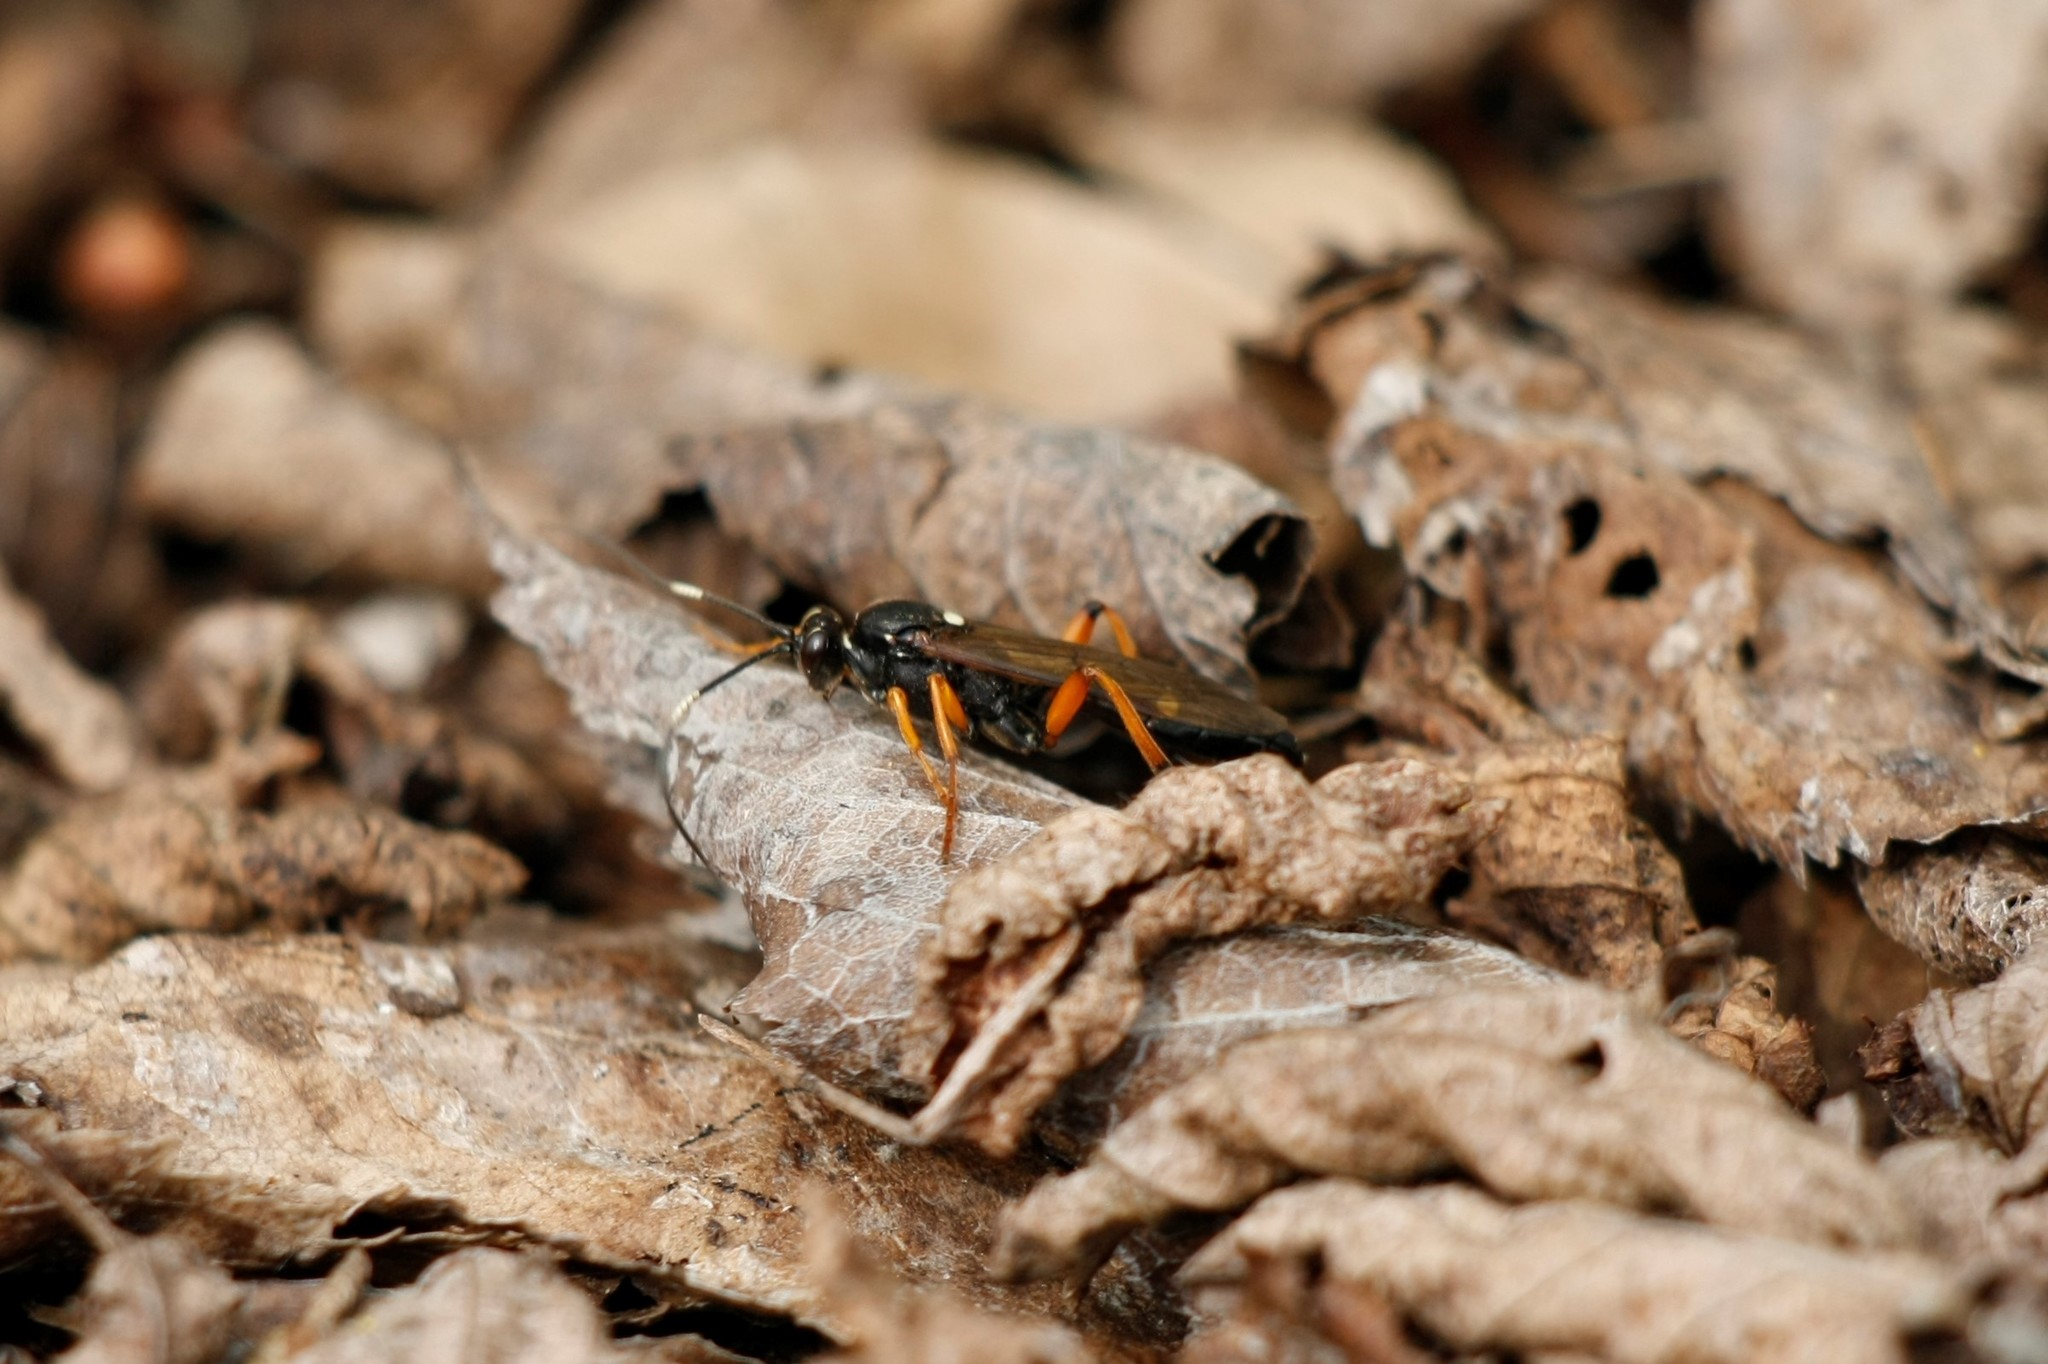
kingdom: Animalia
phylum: Arthropoda
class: Insecta
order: Hymenoptera
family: Ichneumonidae
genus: Diphyus
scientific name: Diphyus quadripunctorius
